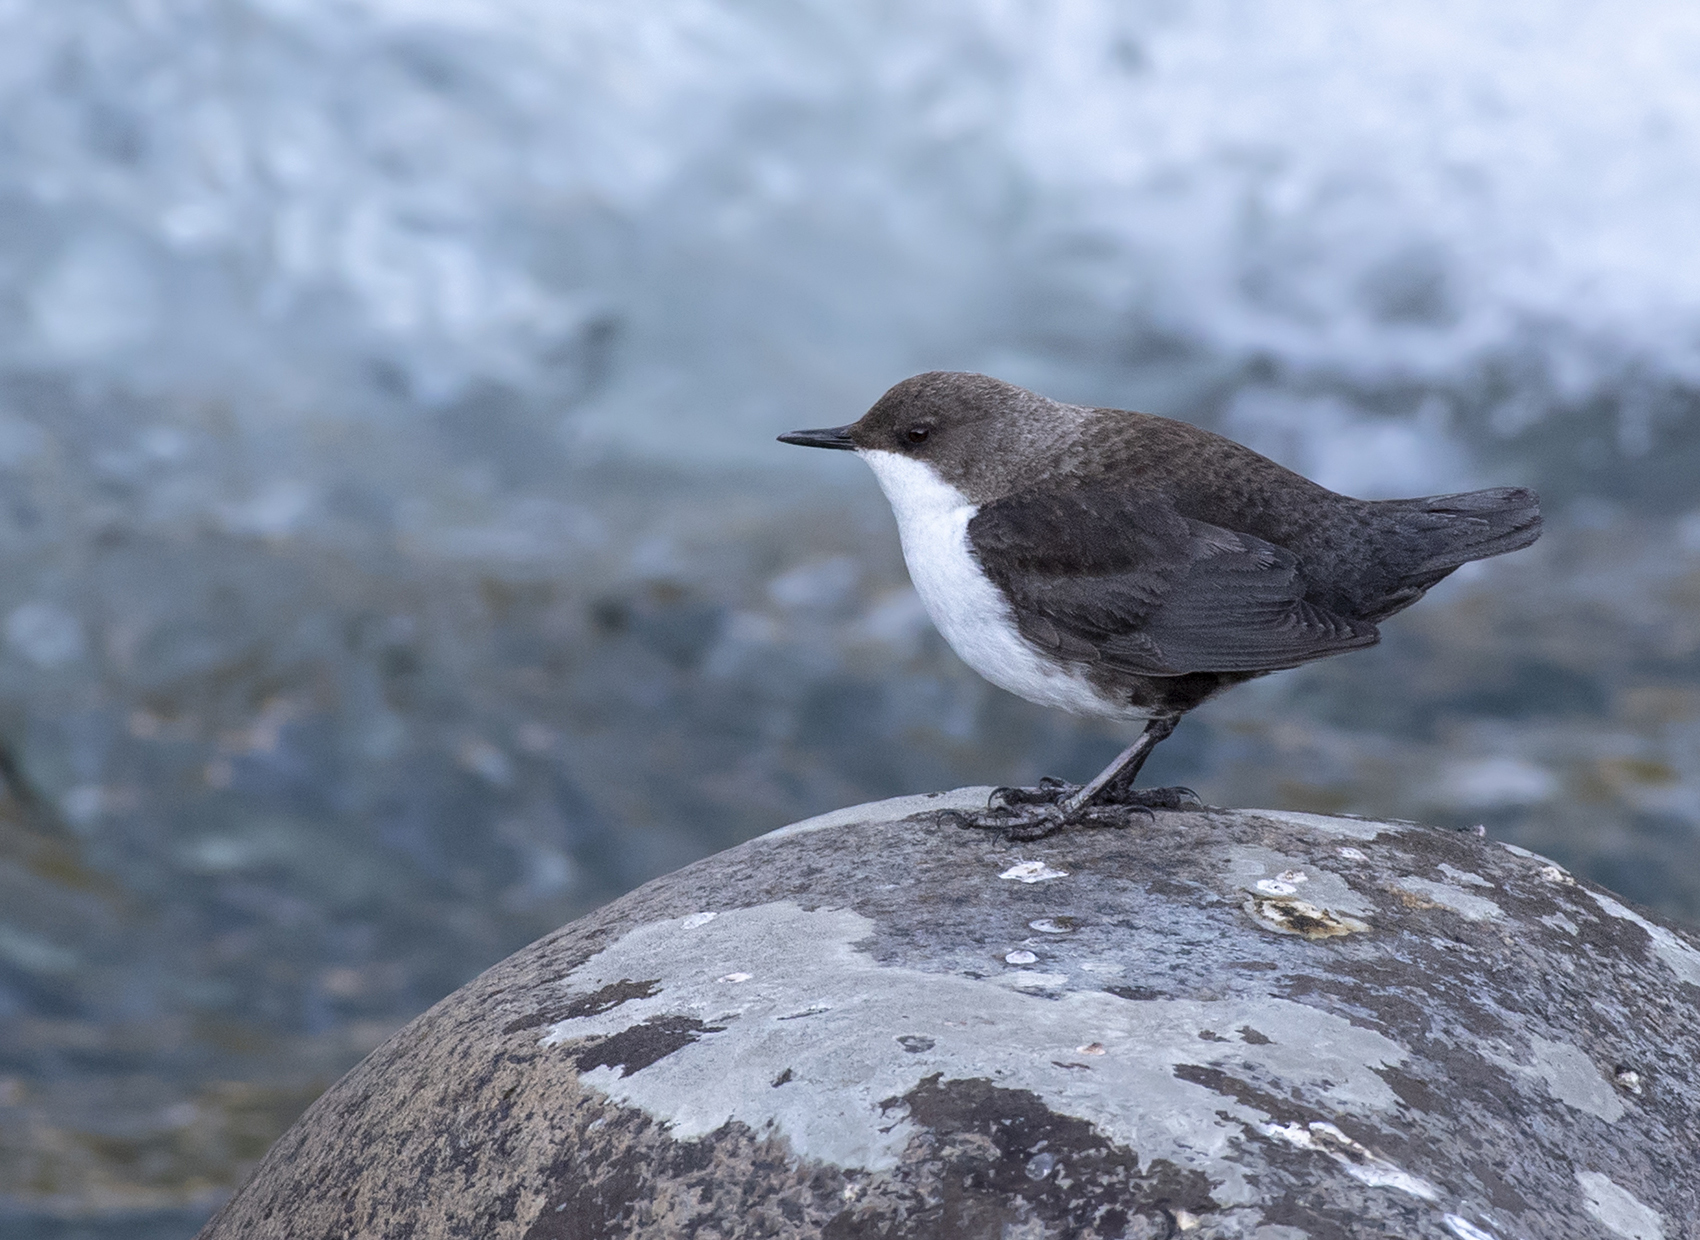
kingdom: Animalia
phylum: Chordata
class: Aves
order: Passeriformes
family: Cinclidae
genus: Cinclus
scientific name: Cinclus cinclus
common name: White-throated dipper
